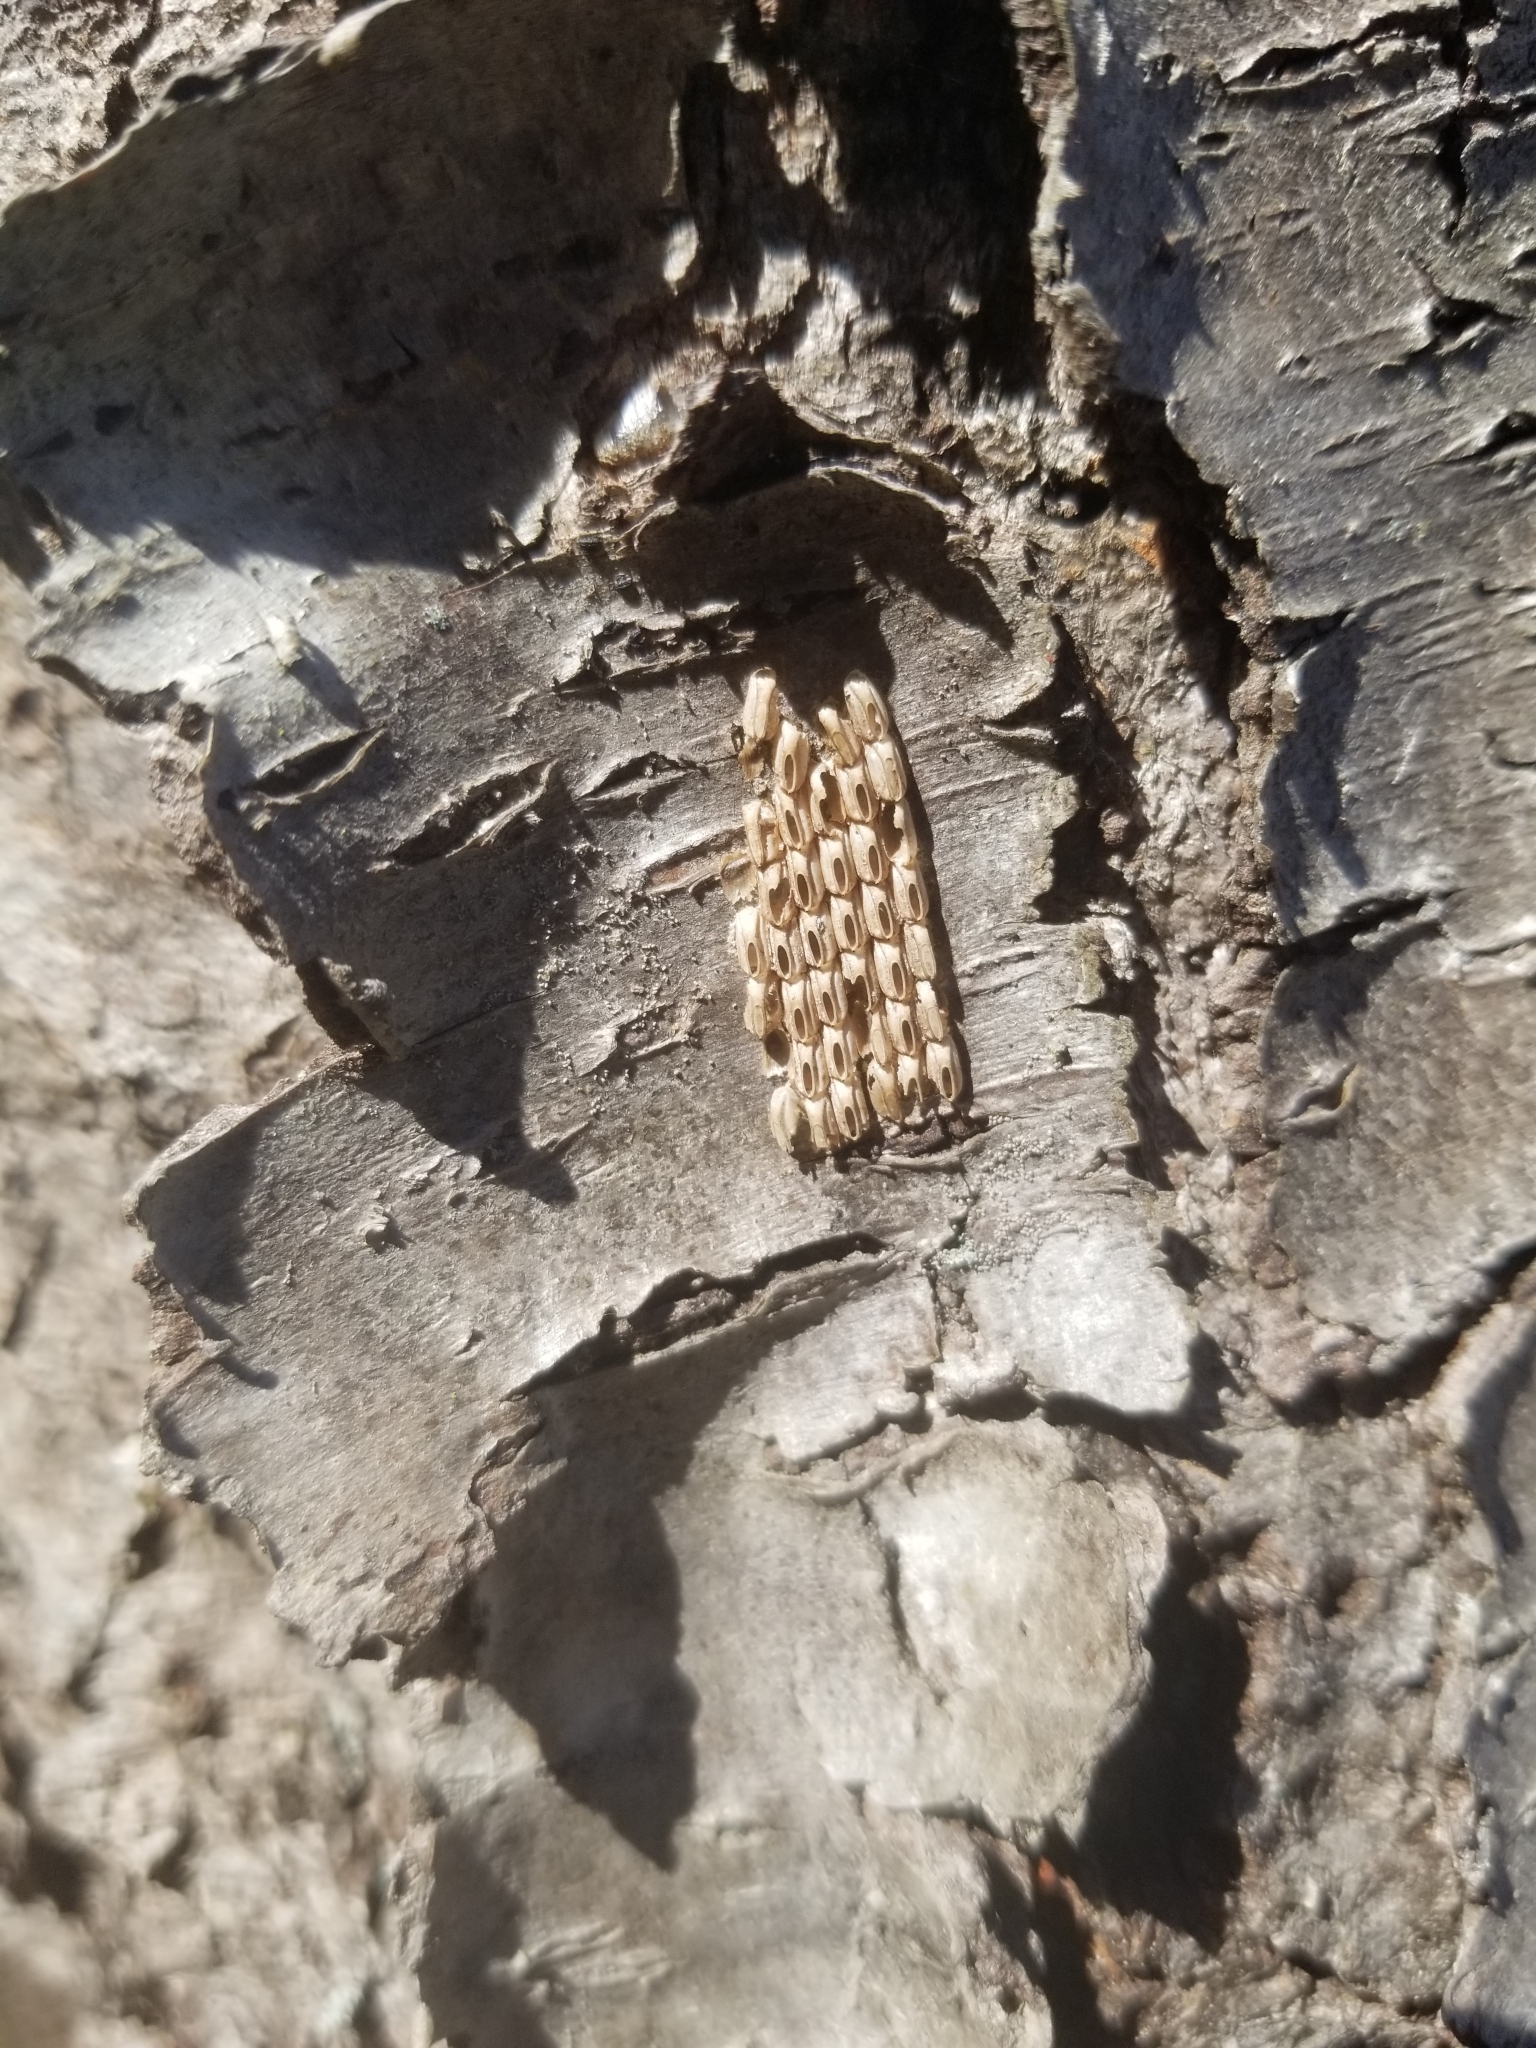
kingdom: Animalia
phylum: Arthropoda
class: Insecta
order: Hemiptera
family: Fulgoridae
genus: Lycorma
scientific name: Lycorma delicatula
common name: Spotted lanternfly
